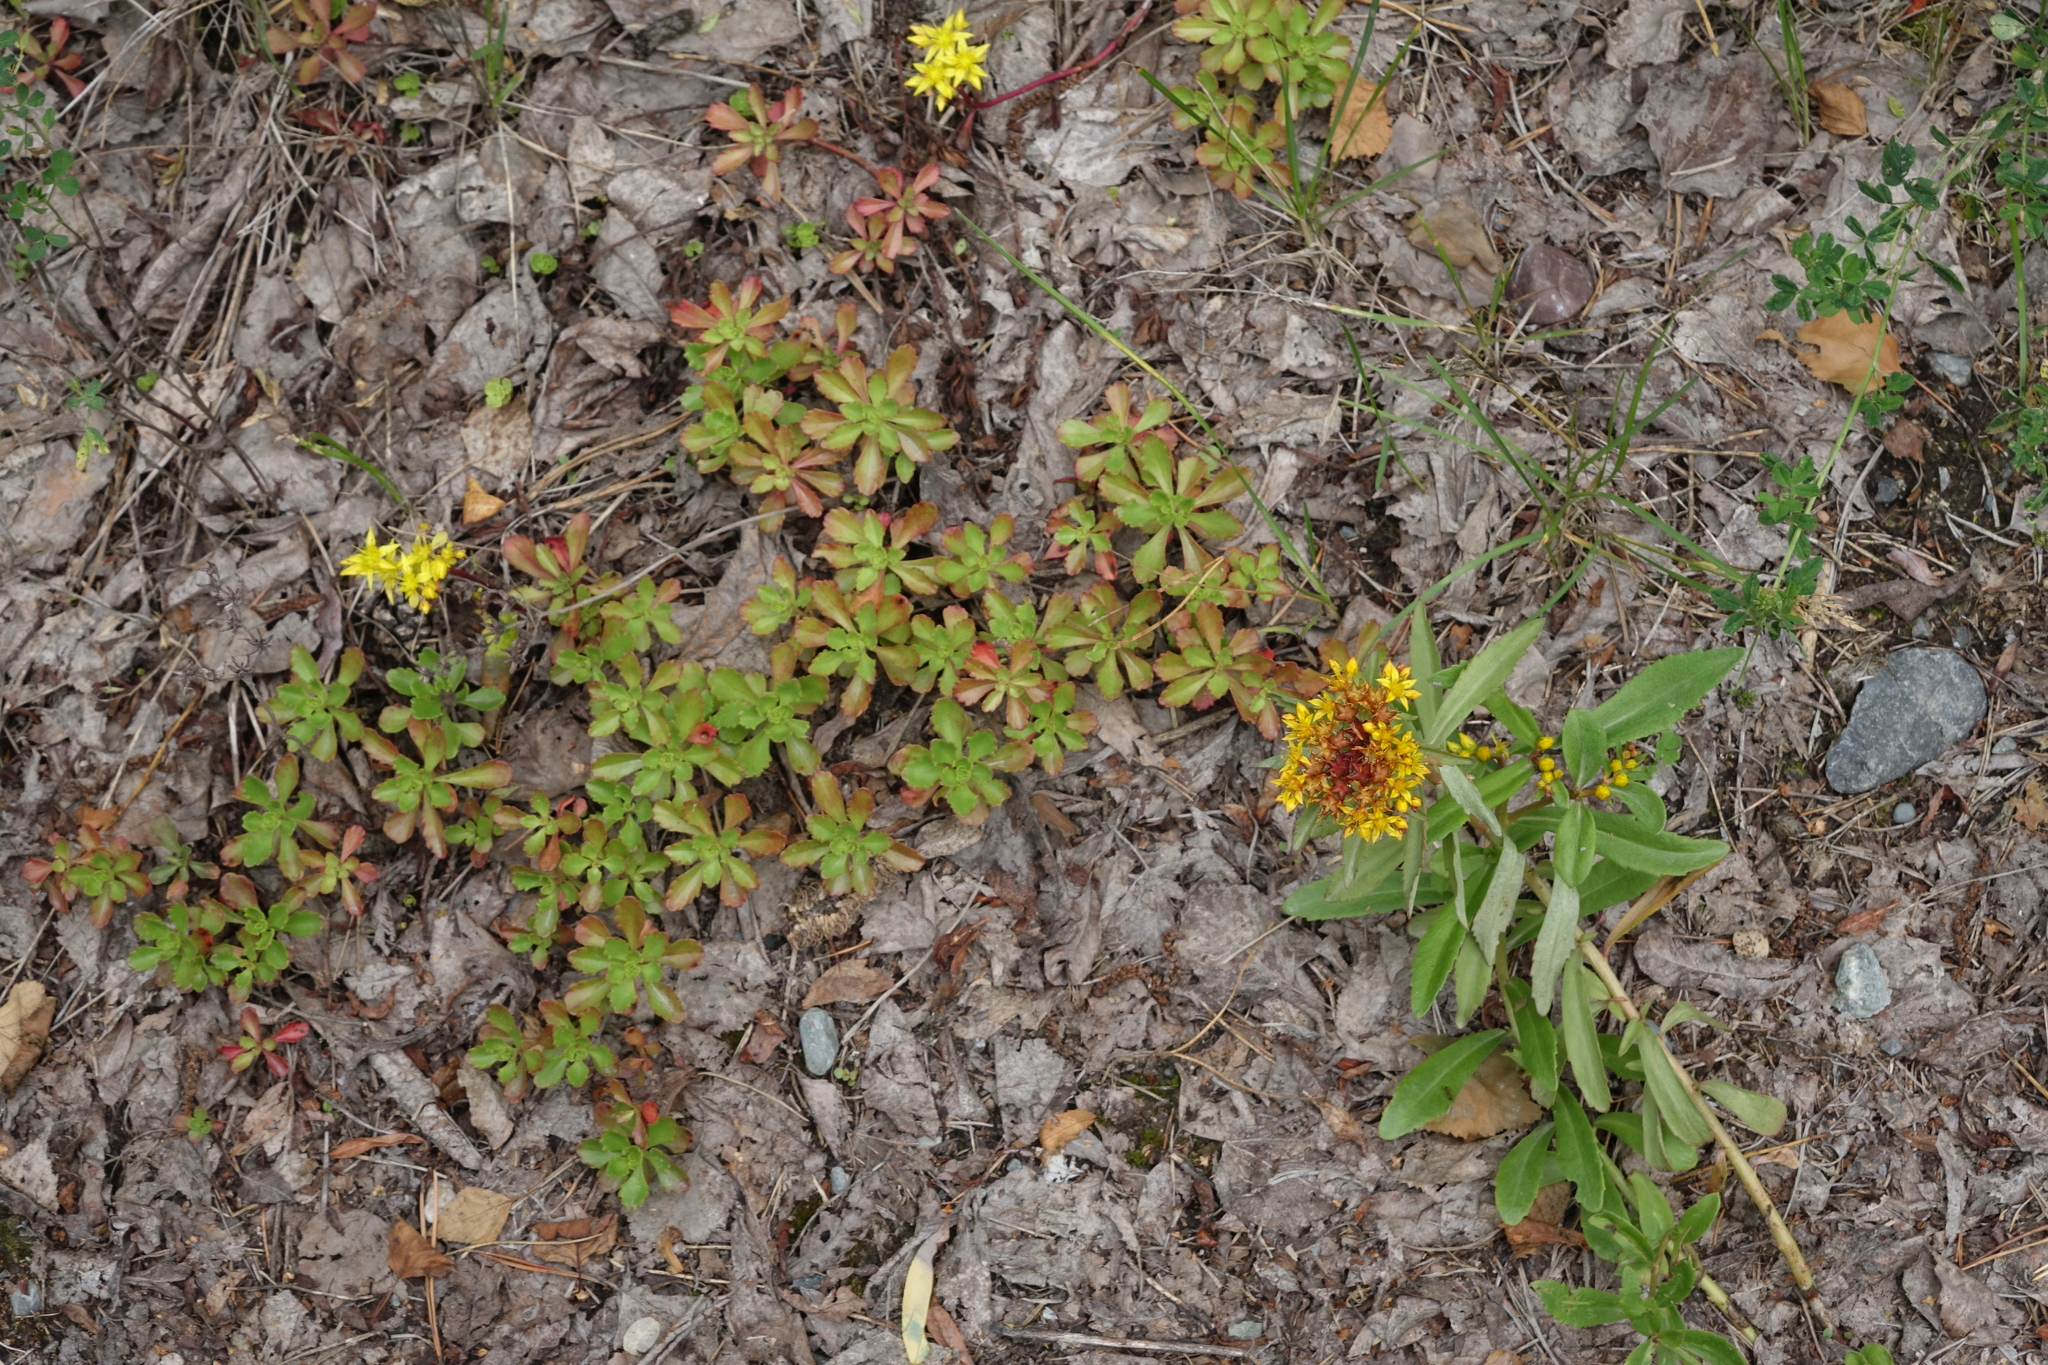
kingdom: Plantae
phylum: Tracheophyta
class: Magnoliopsida
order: Saxifragales
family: Crassulaceae
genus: Phedimus
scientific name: Phedimus hybridus
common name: Hybrid stonecrop
